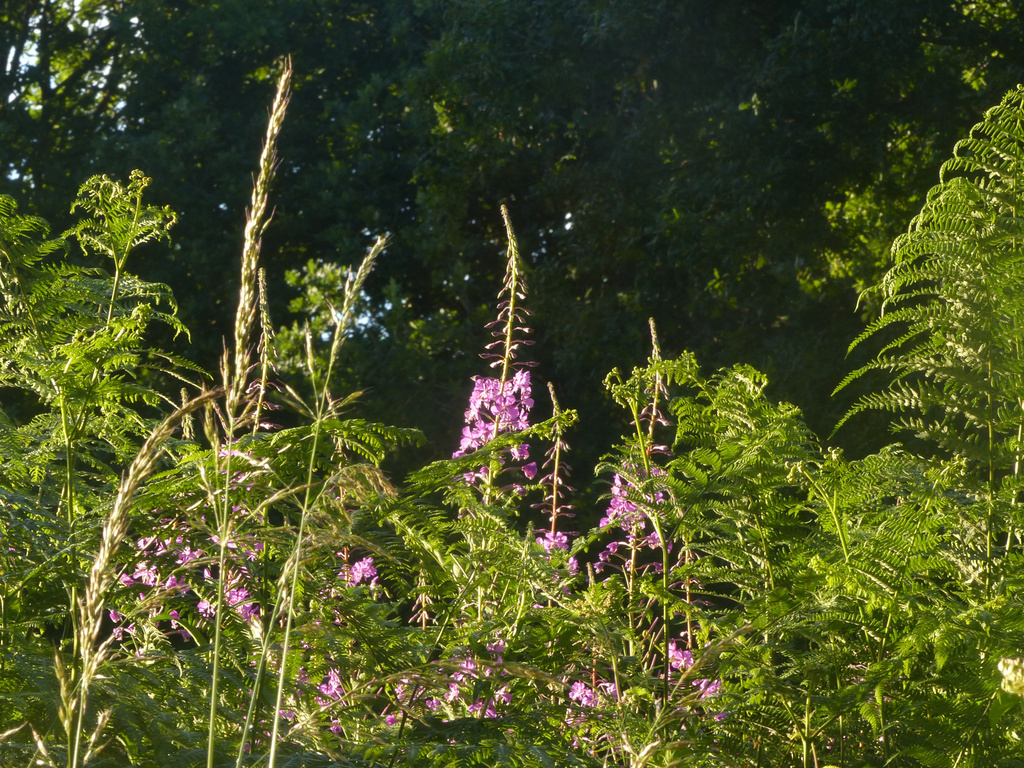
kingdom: Plantae
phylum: Tracheophyta
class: Magnoliopsida
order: Myrtales
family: Onagraceae
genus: Chamaenerion
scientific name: Chamaenerion angustifolium
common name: Fireweed
